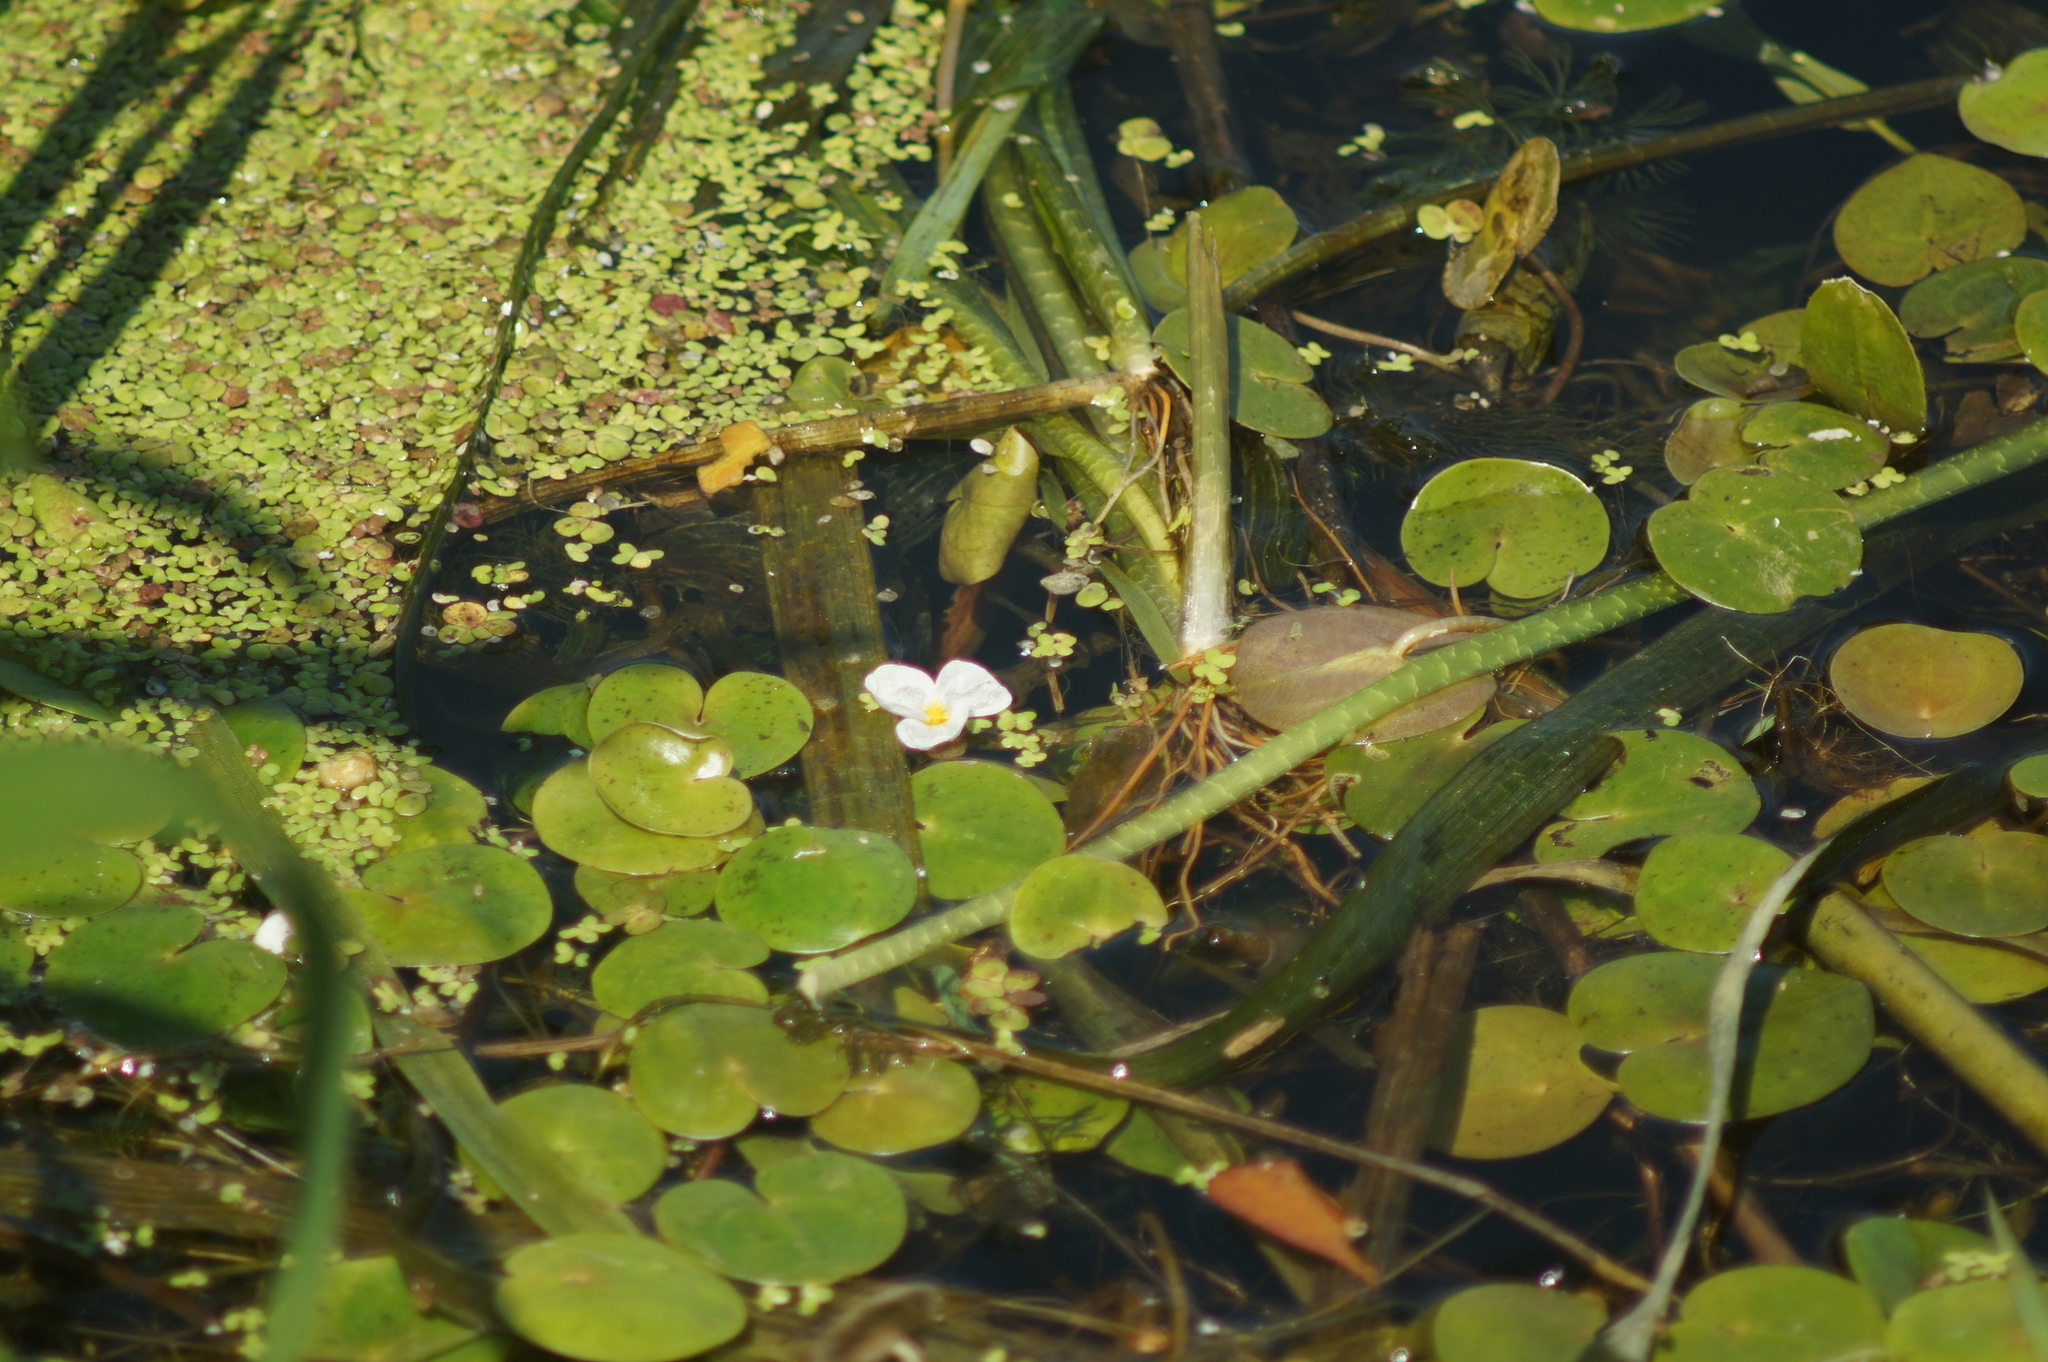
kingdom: Plantae
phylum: Tracheophyta
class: Liliopsida
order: Alismatales
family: Hydrocharitaceae
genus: Hydrocharis
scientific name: Hydrocharis morsus-ranae
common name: Frogbit
